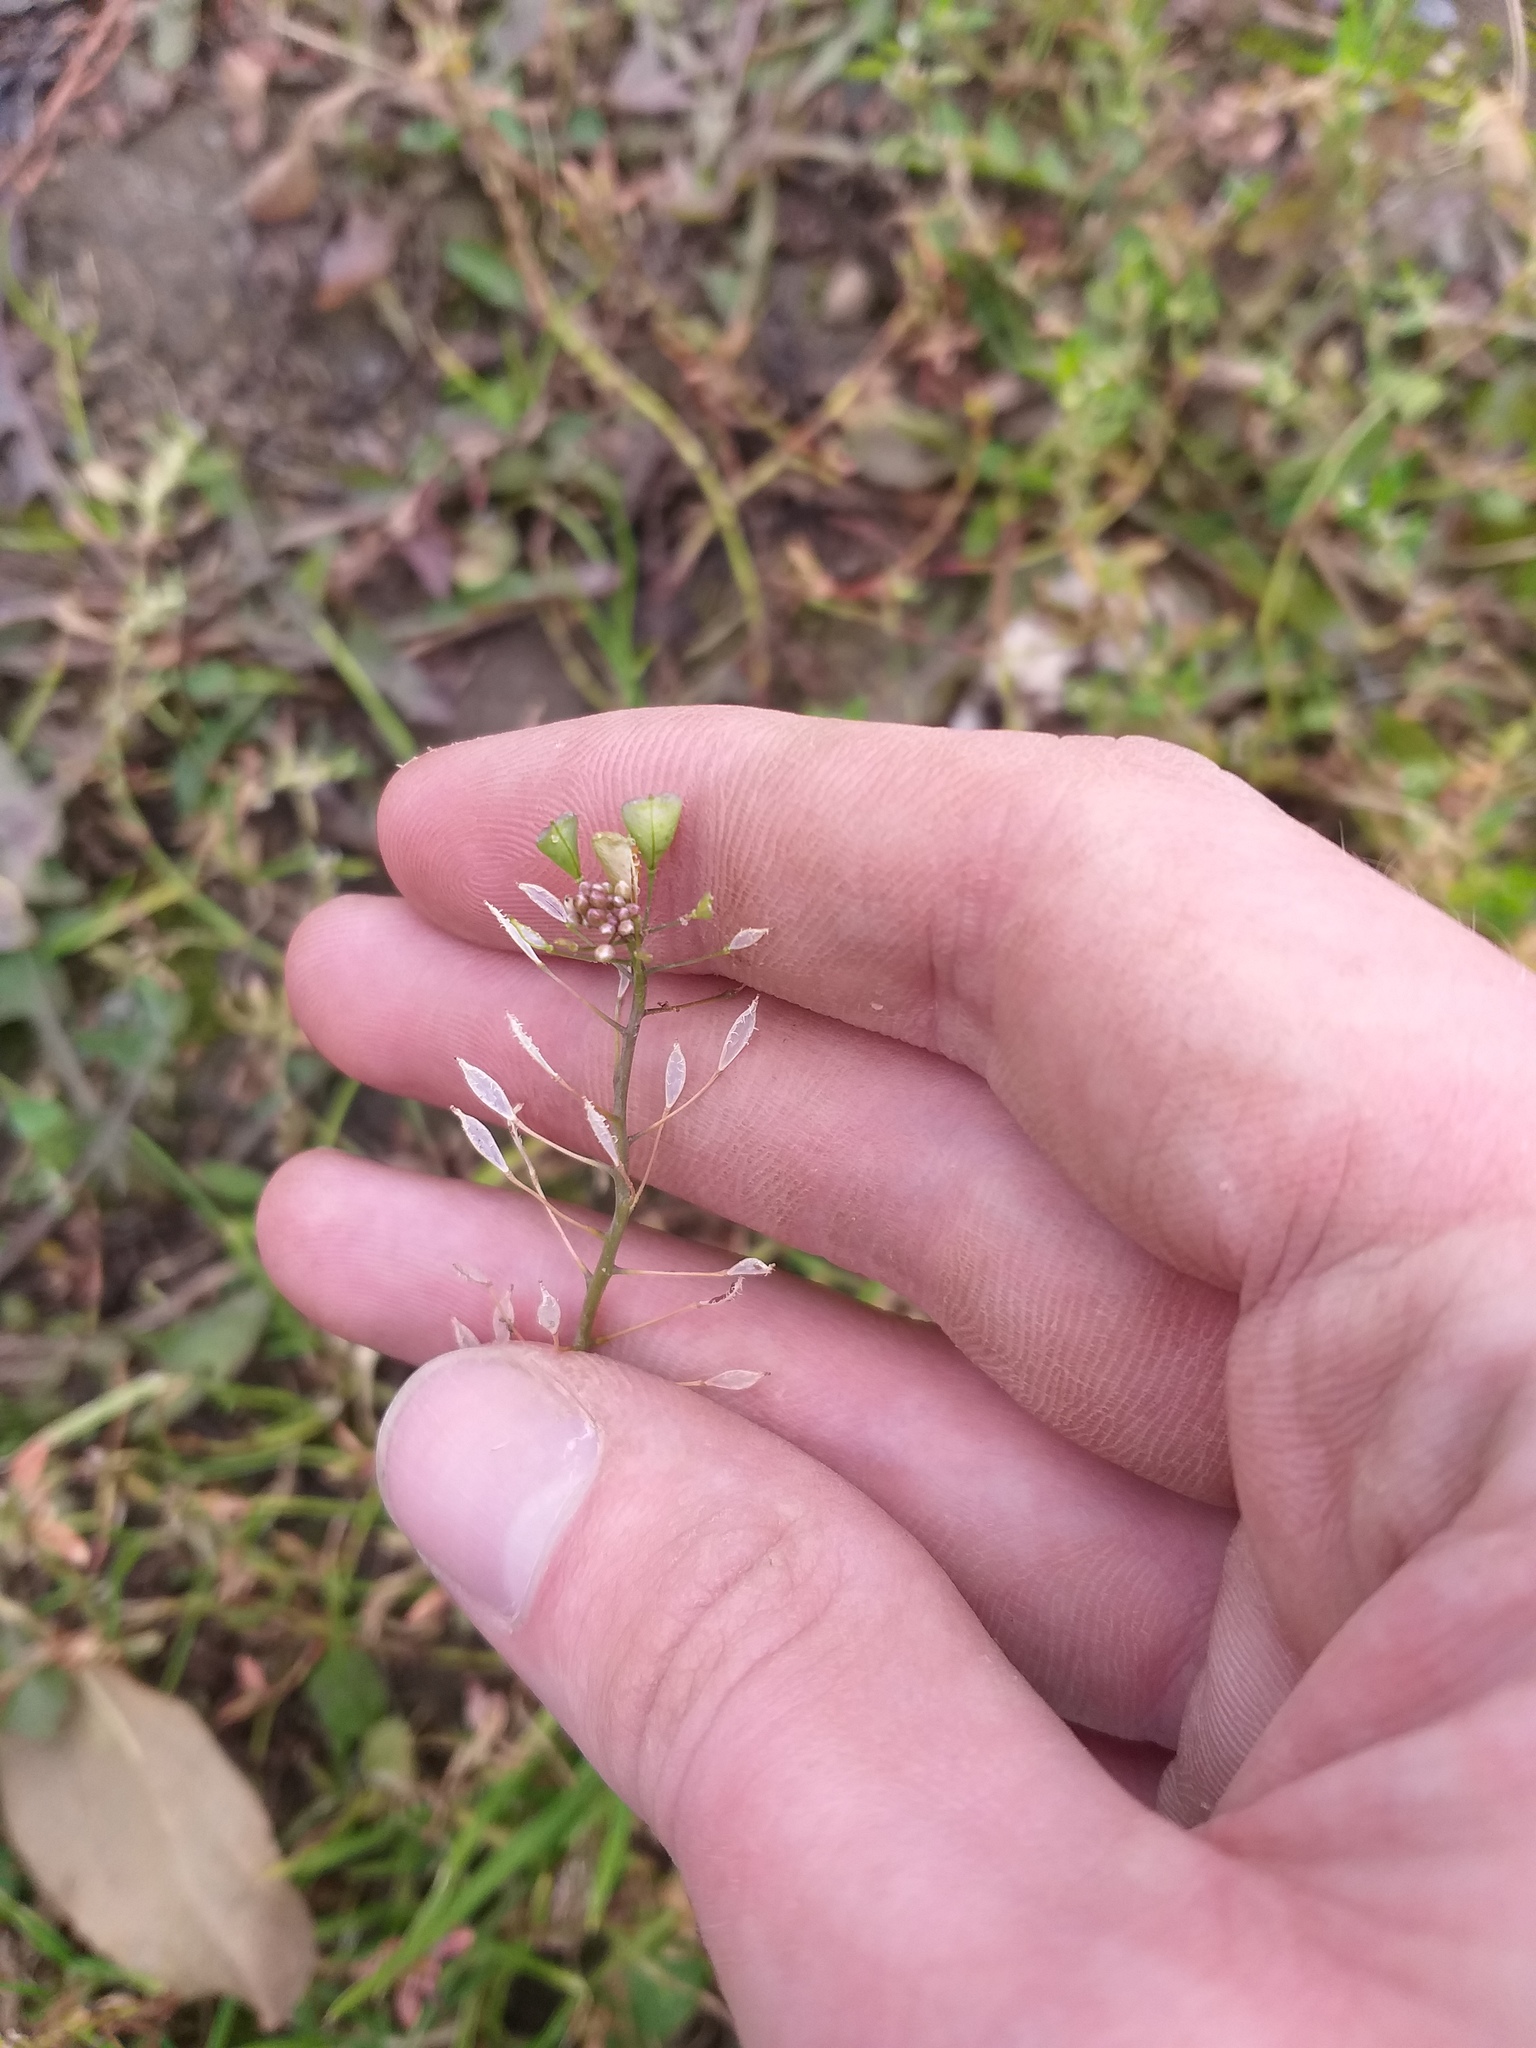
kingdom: Plantae
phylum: Tracheophyta
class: Magnoliopsida
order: Brassicales
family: Brassicaceae
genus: Capsella
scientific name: Capsella bursa-pastoris
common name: Shepherd's purse
